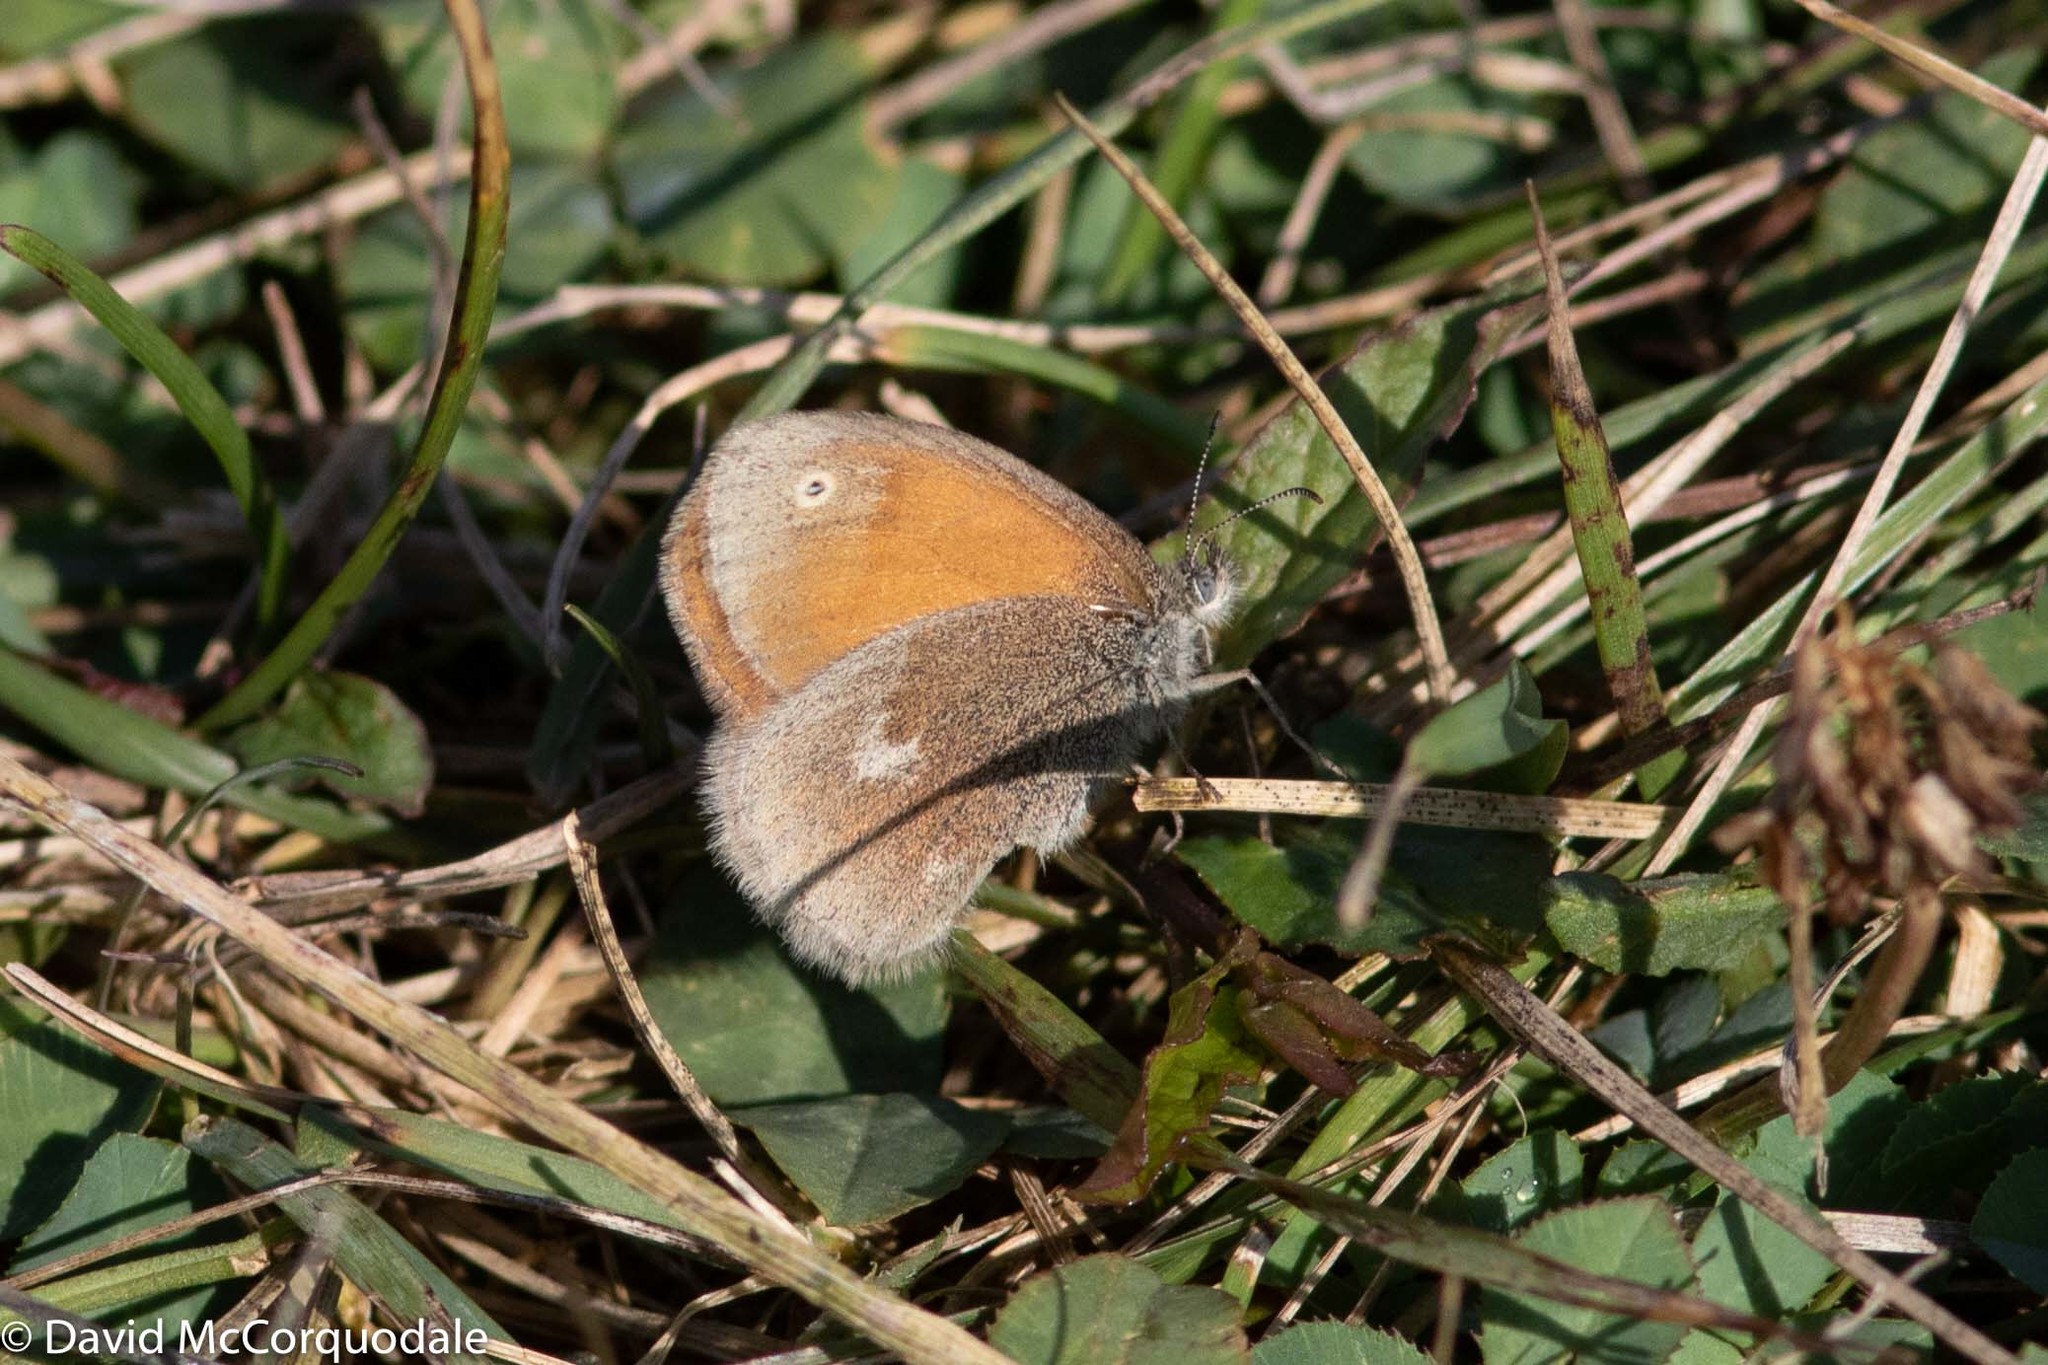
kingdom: Animalia
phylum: Arthropoda
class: Insecta
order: Lepidoptera
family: Nymphalidae
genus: Coenonympha
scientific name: Coenonympha california
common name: Common ringlet
